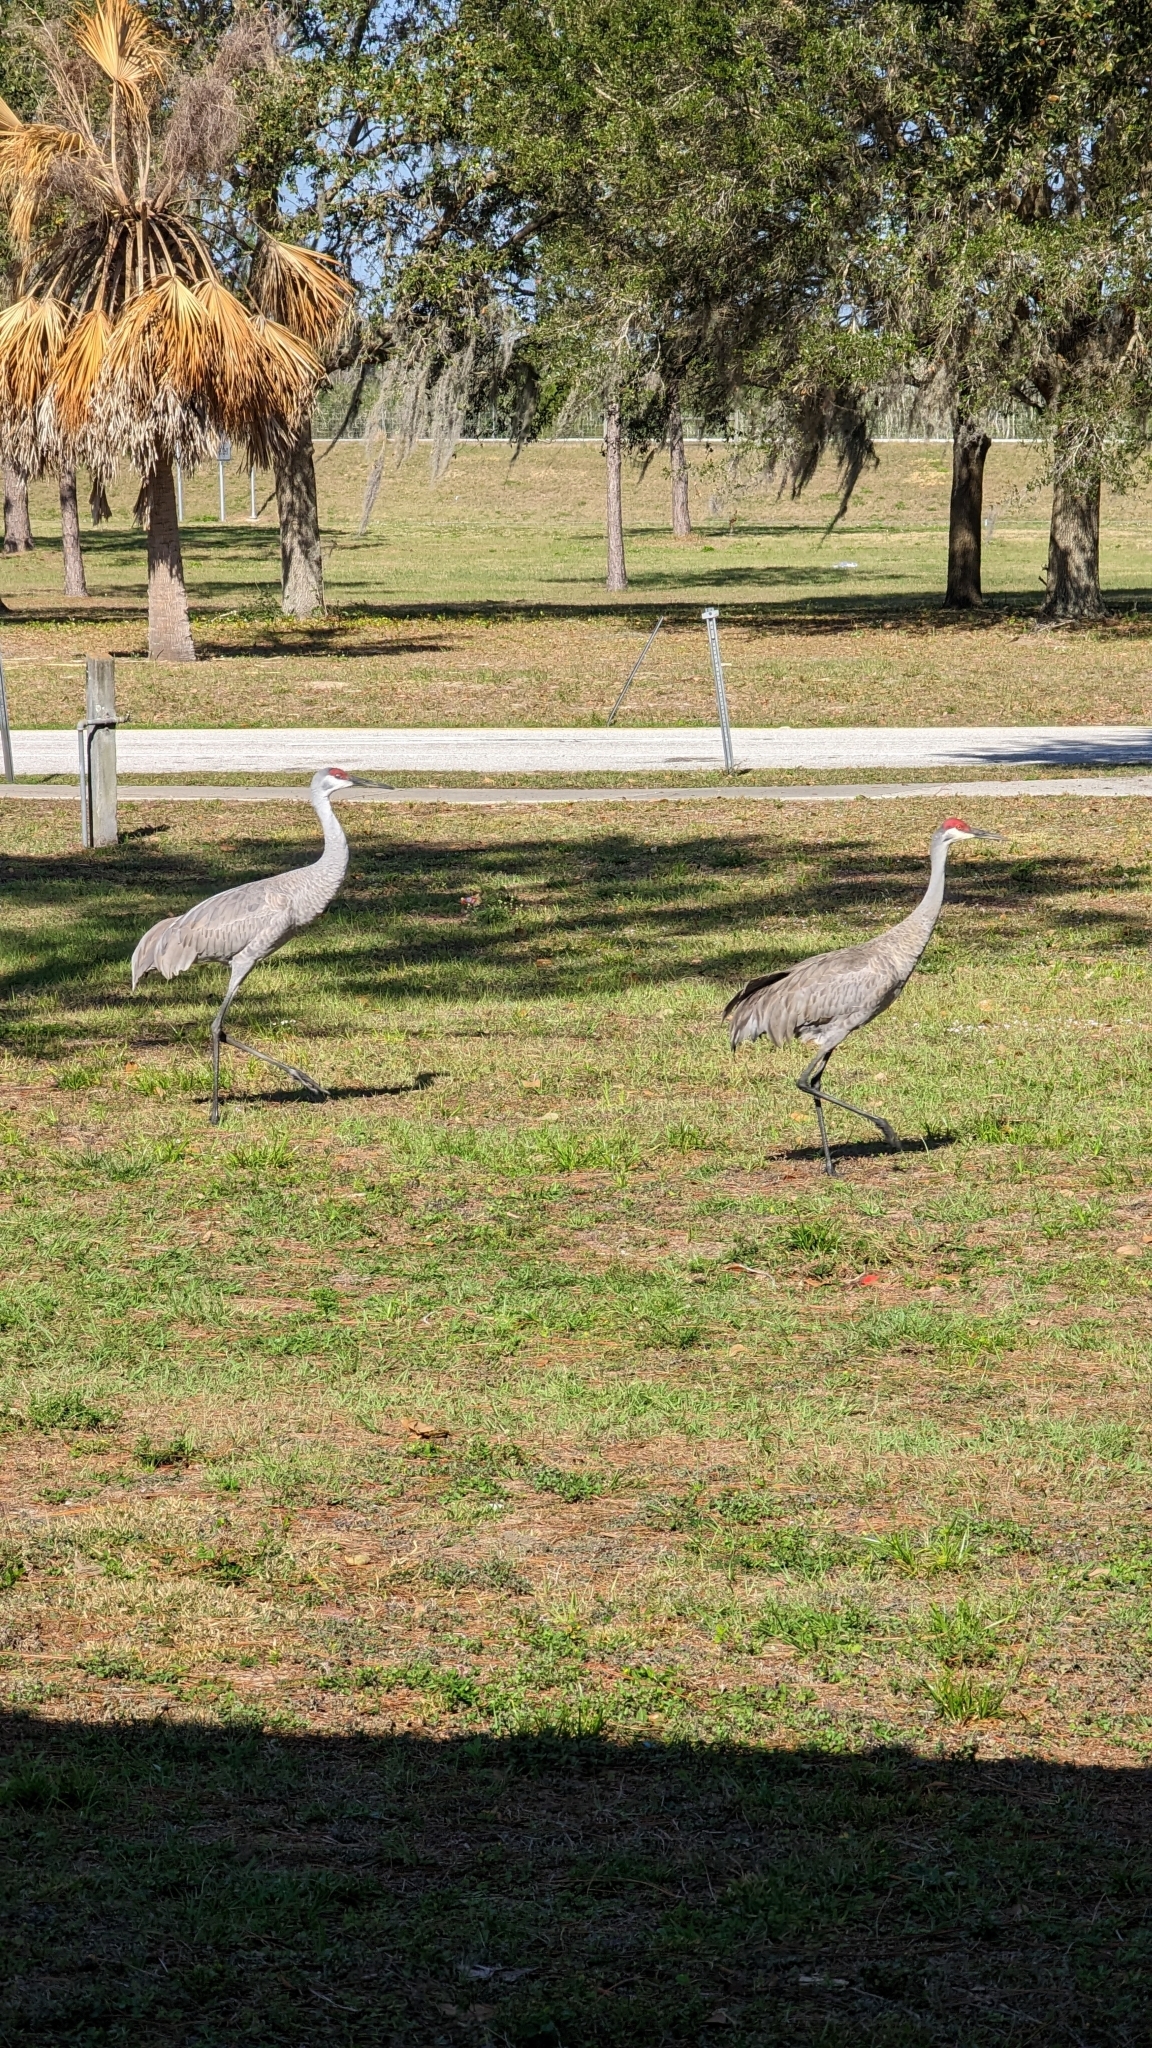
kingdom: Animalia
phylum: Chordata
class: Aves
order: Gruiformes
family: Gruidae
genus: Grus
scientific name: Grus canadensis
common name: Sandhill crane
